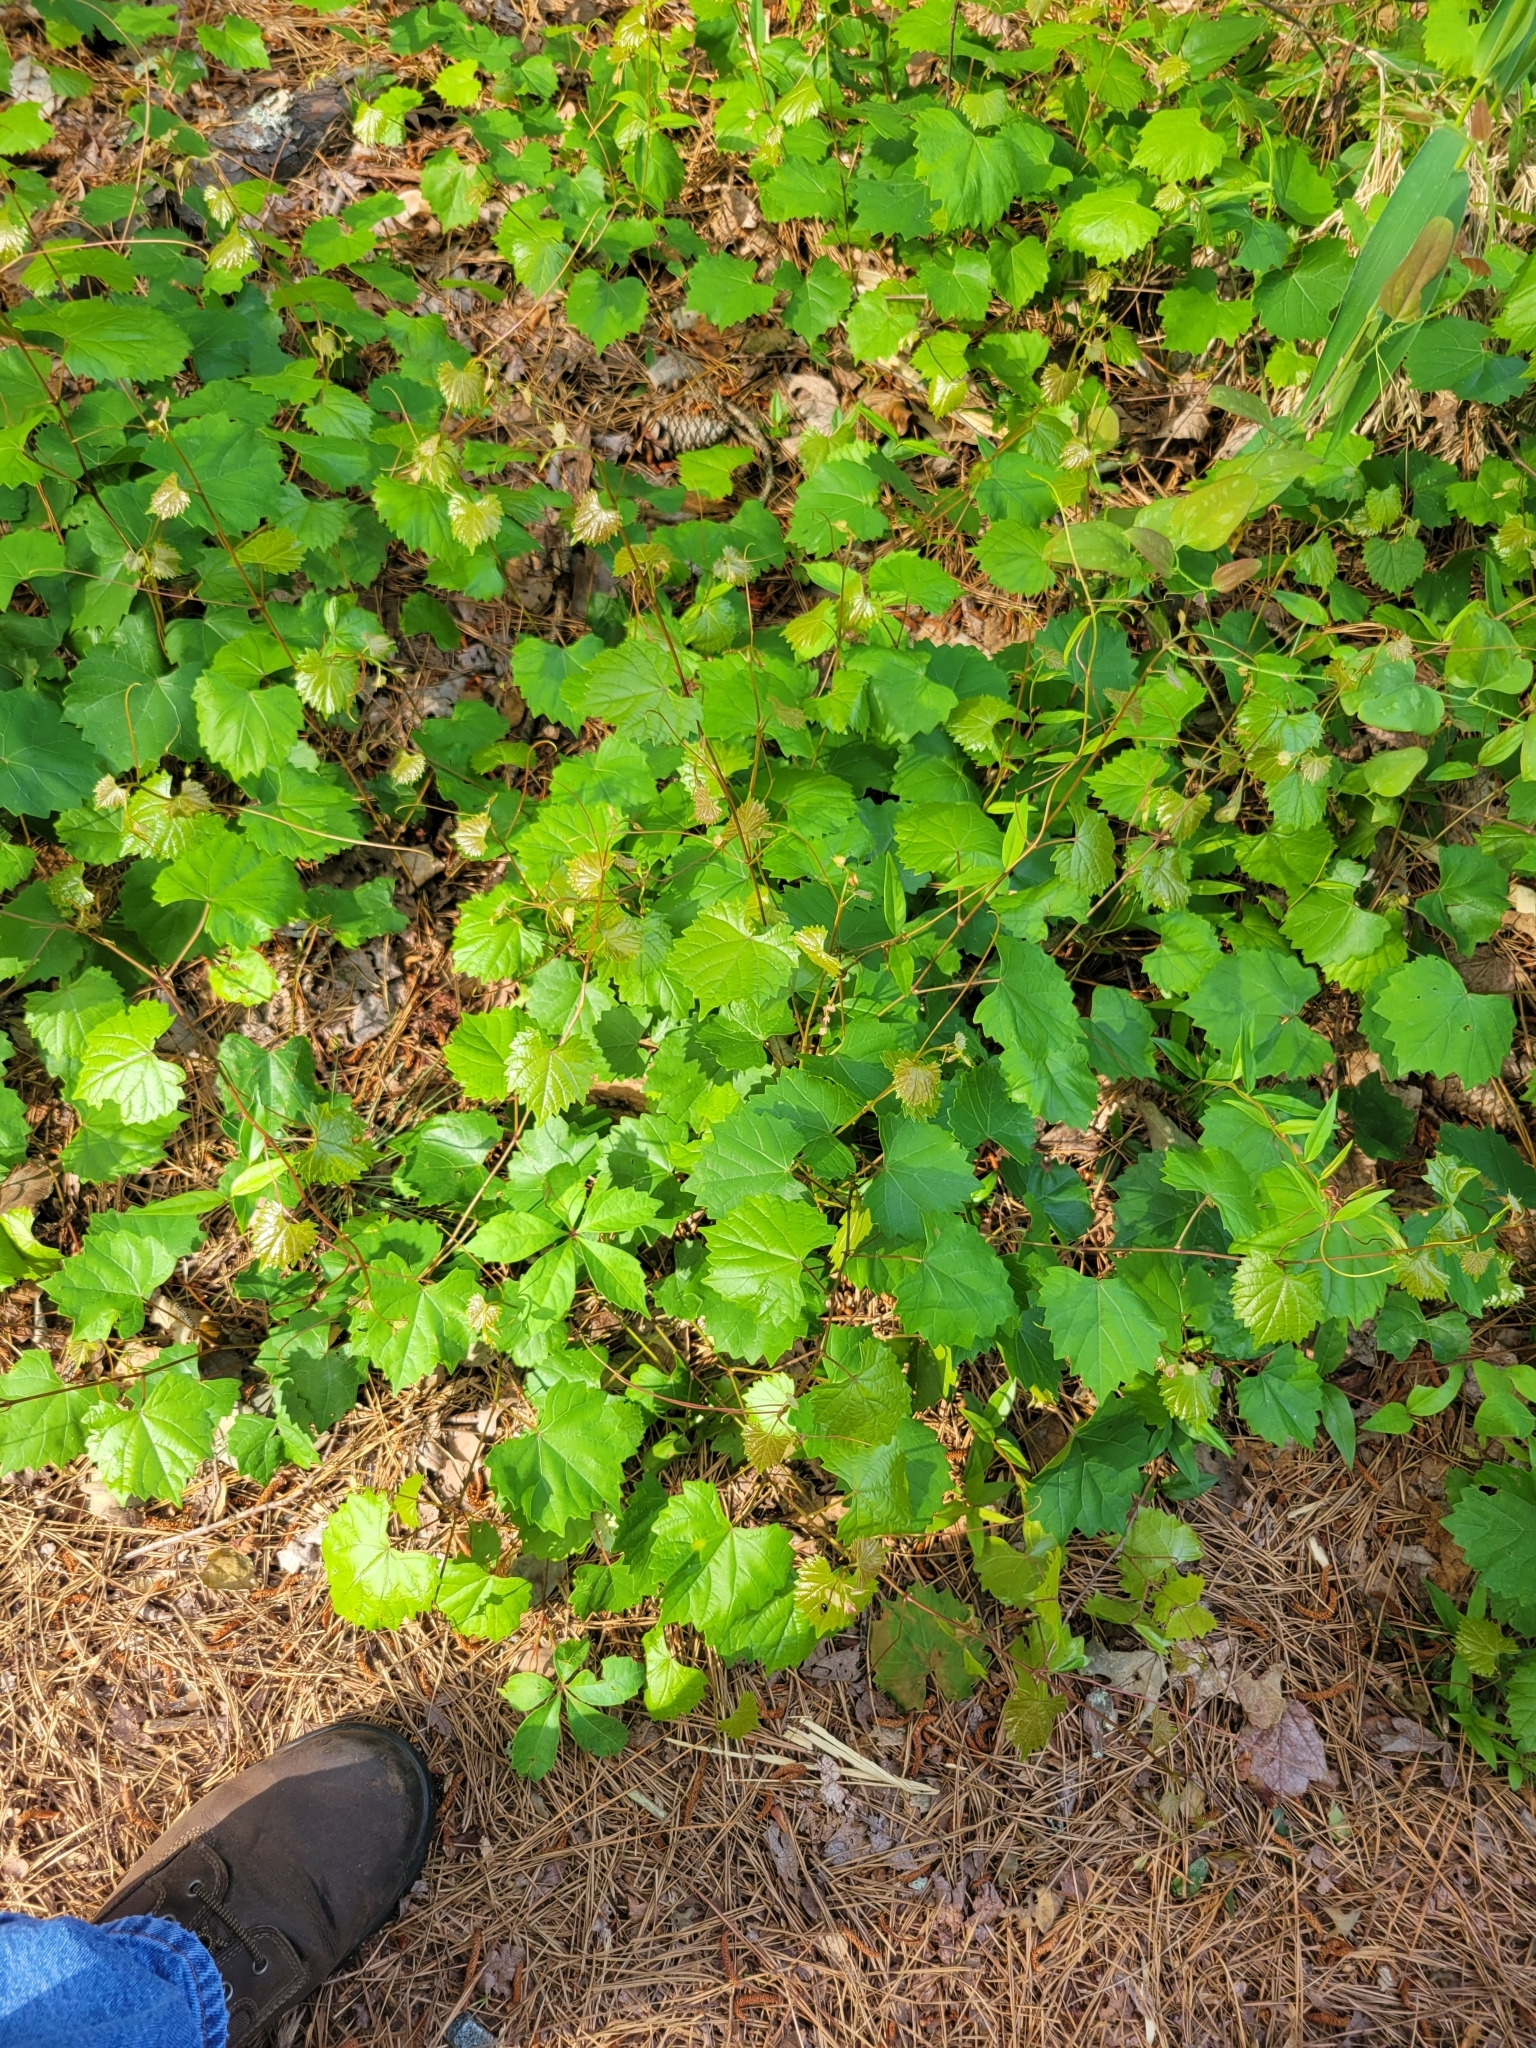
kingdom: Plantae
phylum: Tracheophyta
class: Magnoliopsida
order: Vitales
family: Vitaceae
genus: Vitis
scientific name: Vitis rotundifolia
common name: Muscadine grape
